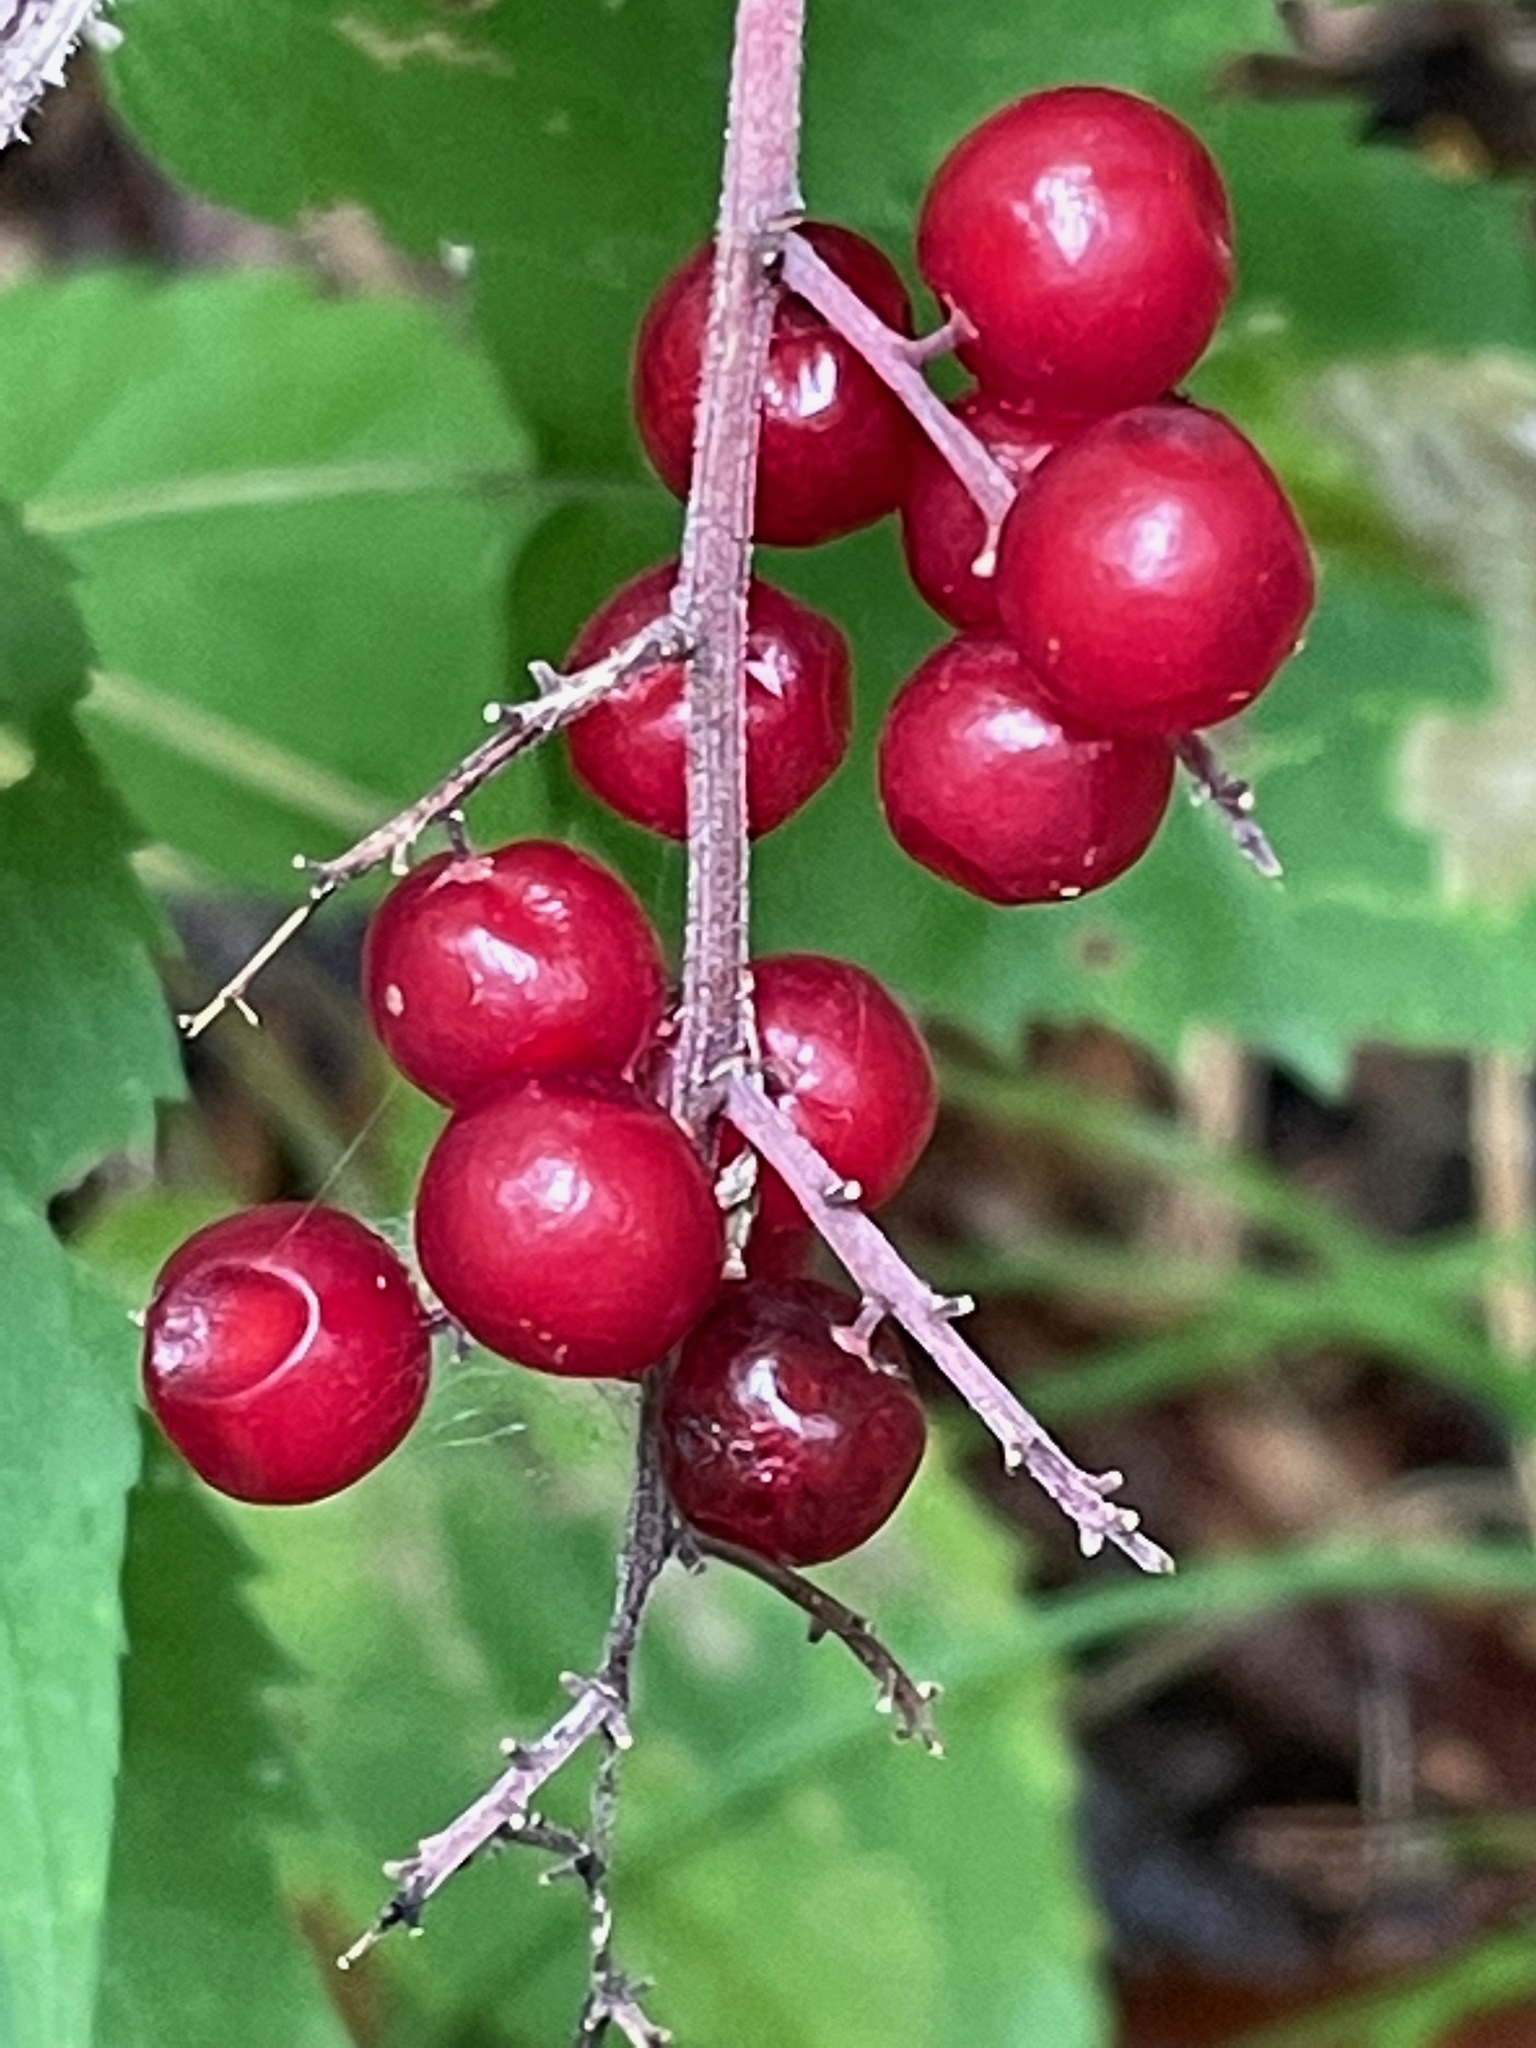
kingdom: Plantae
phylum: Tracheophyta
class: Liliopsida
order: Asparagales
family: Asparagaceae
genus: Maianthemum
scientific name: Maianthemum racemosum
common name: False spikenard
